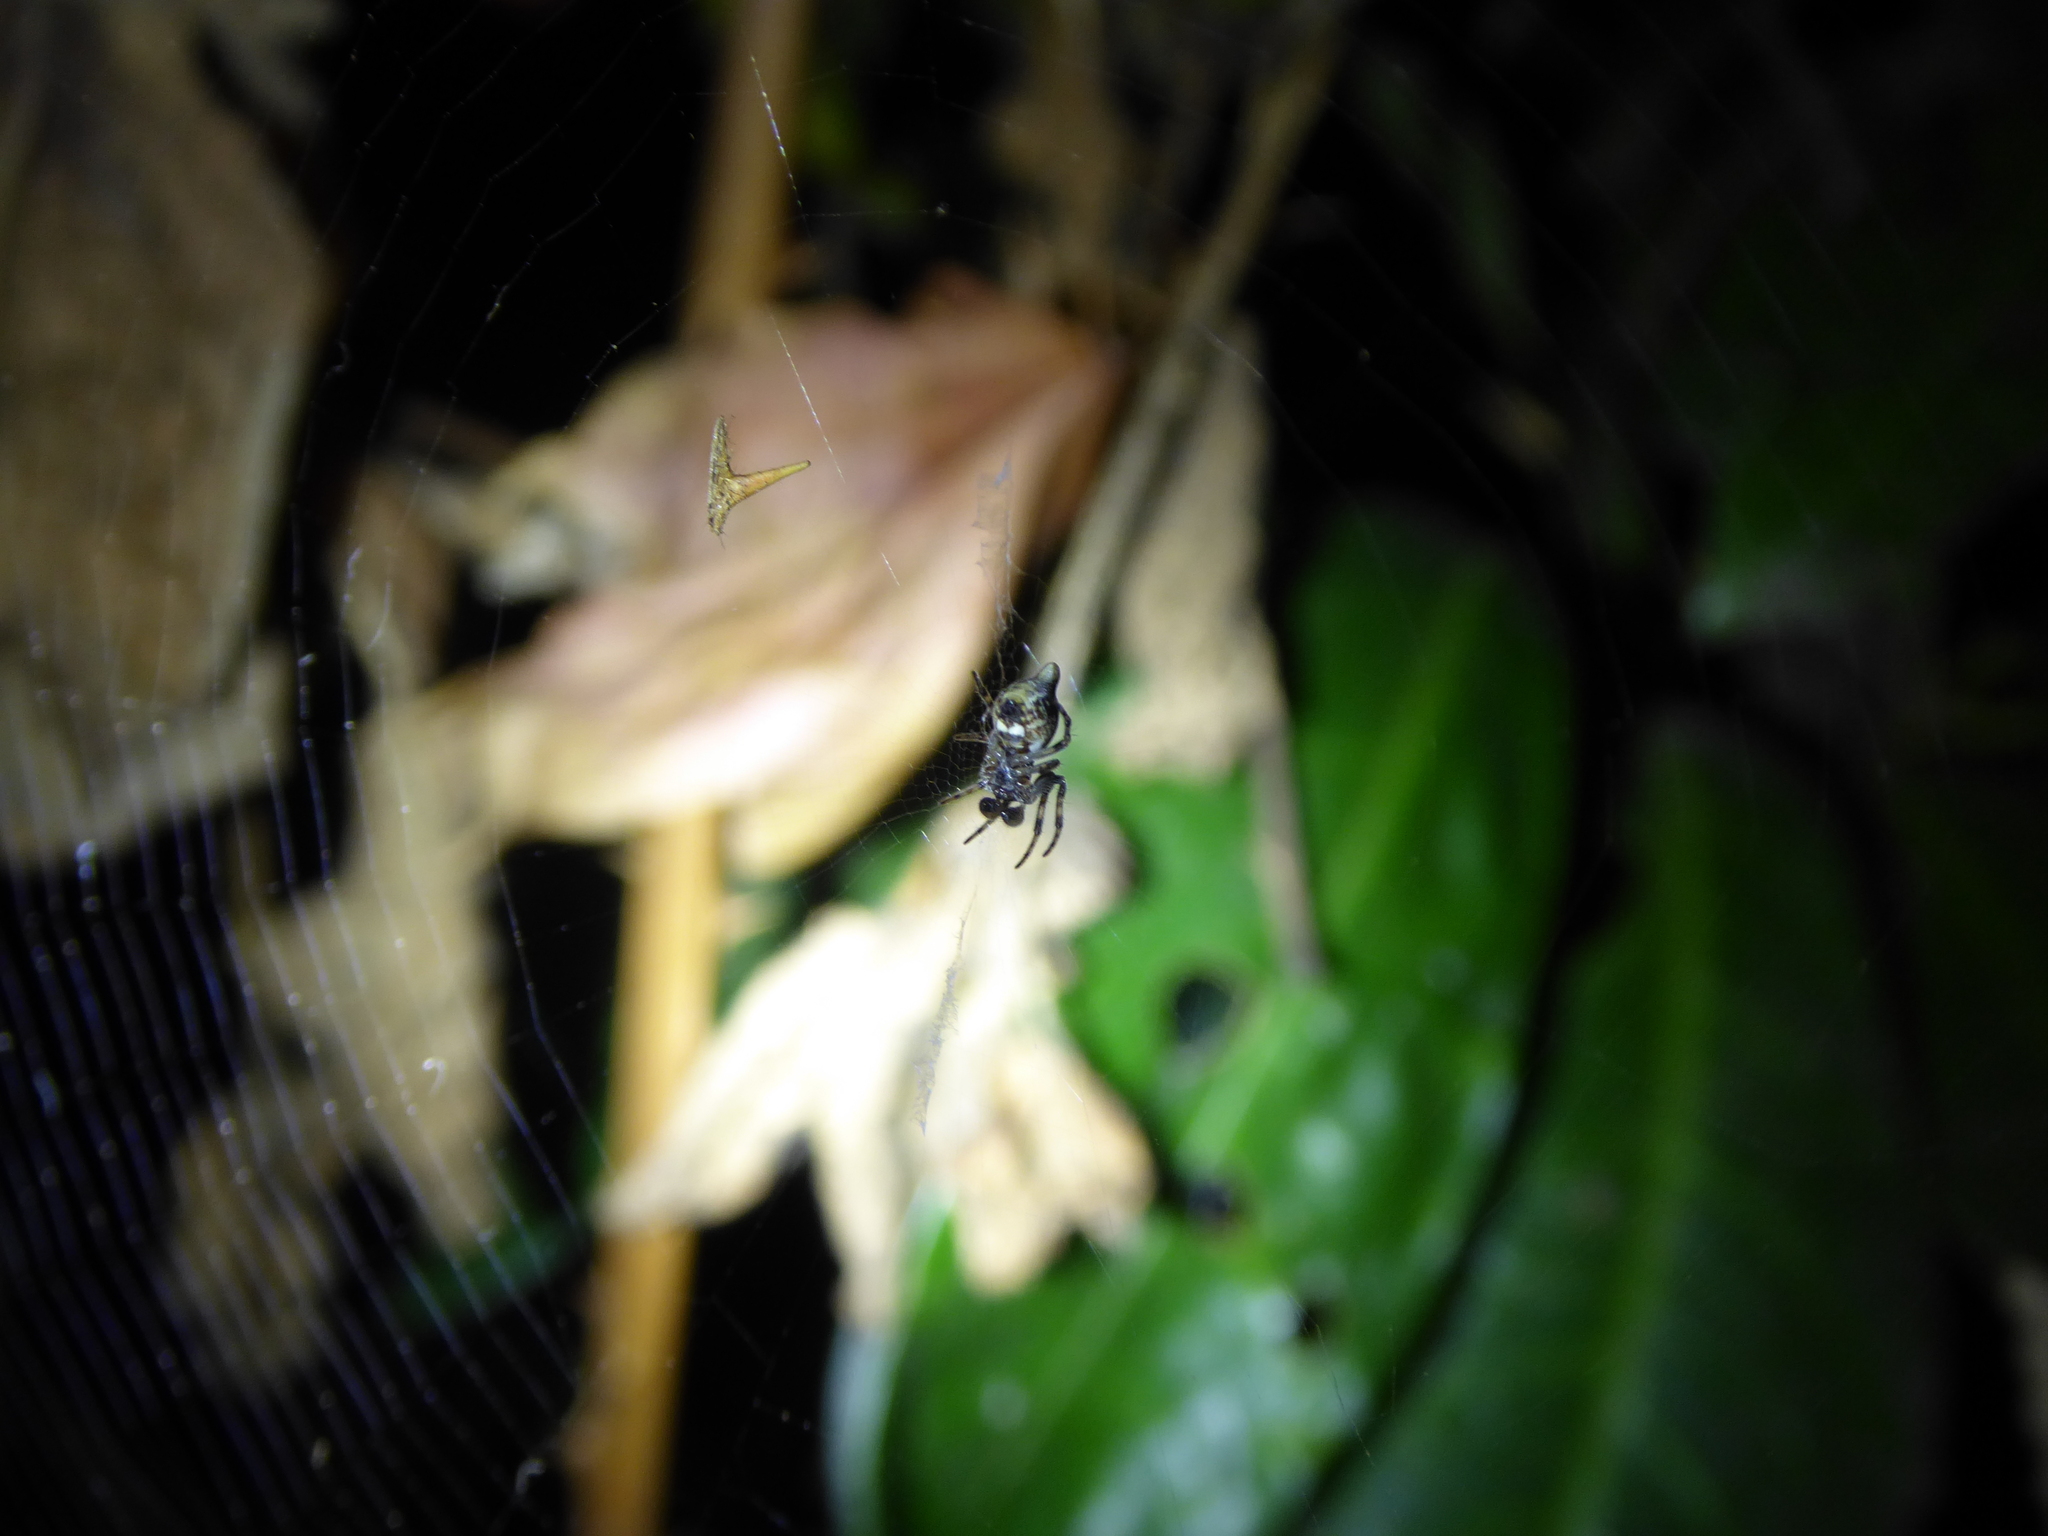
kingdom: Animalia
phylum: Arthropoda
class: Arachnida
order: Araneae
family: Araneidae
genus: Cyclosa
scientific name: Cyclosa conica
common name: Conical trashline orbweaver
